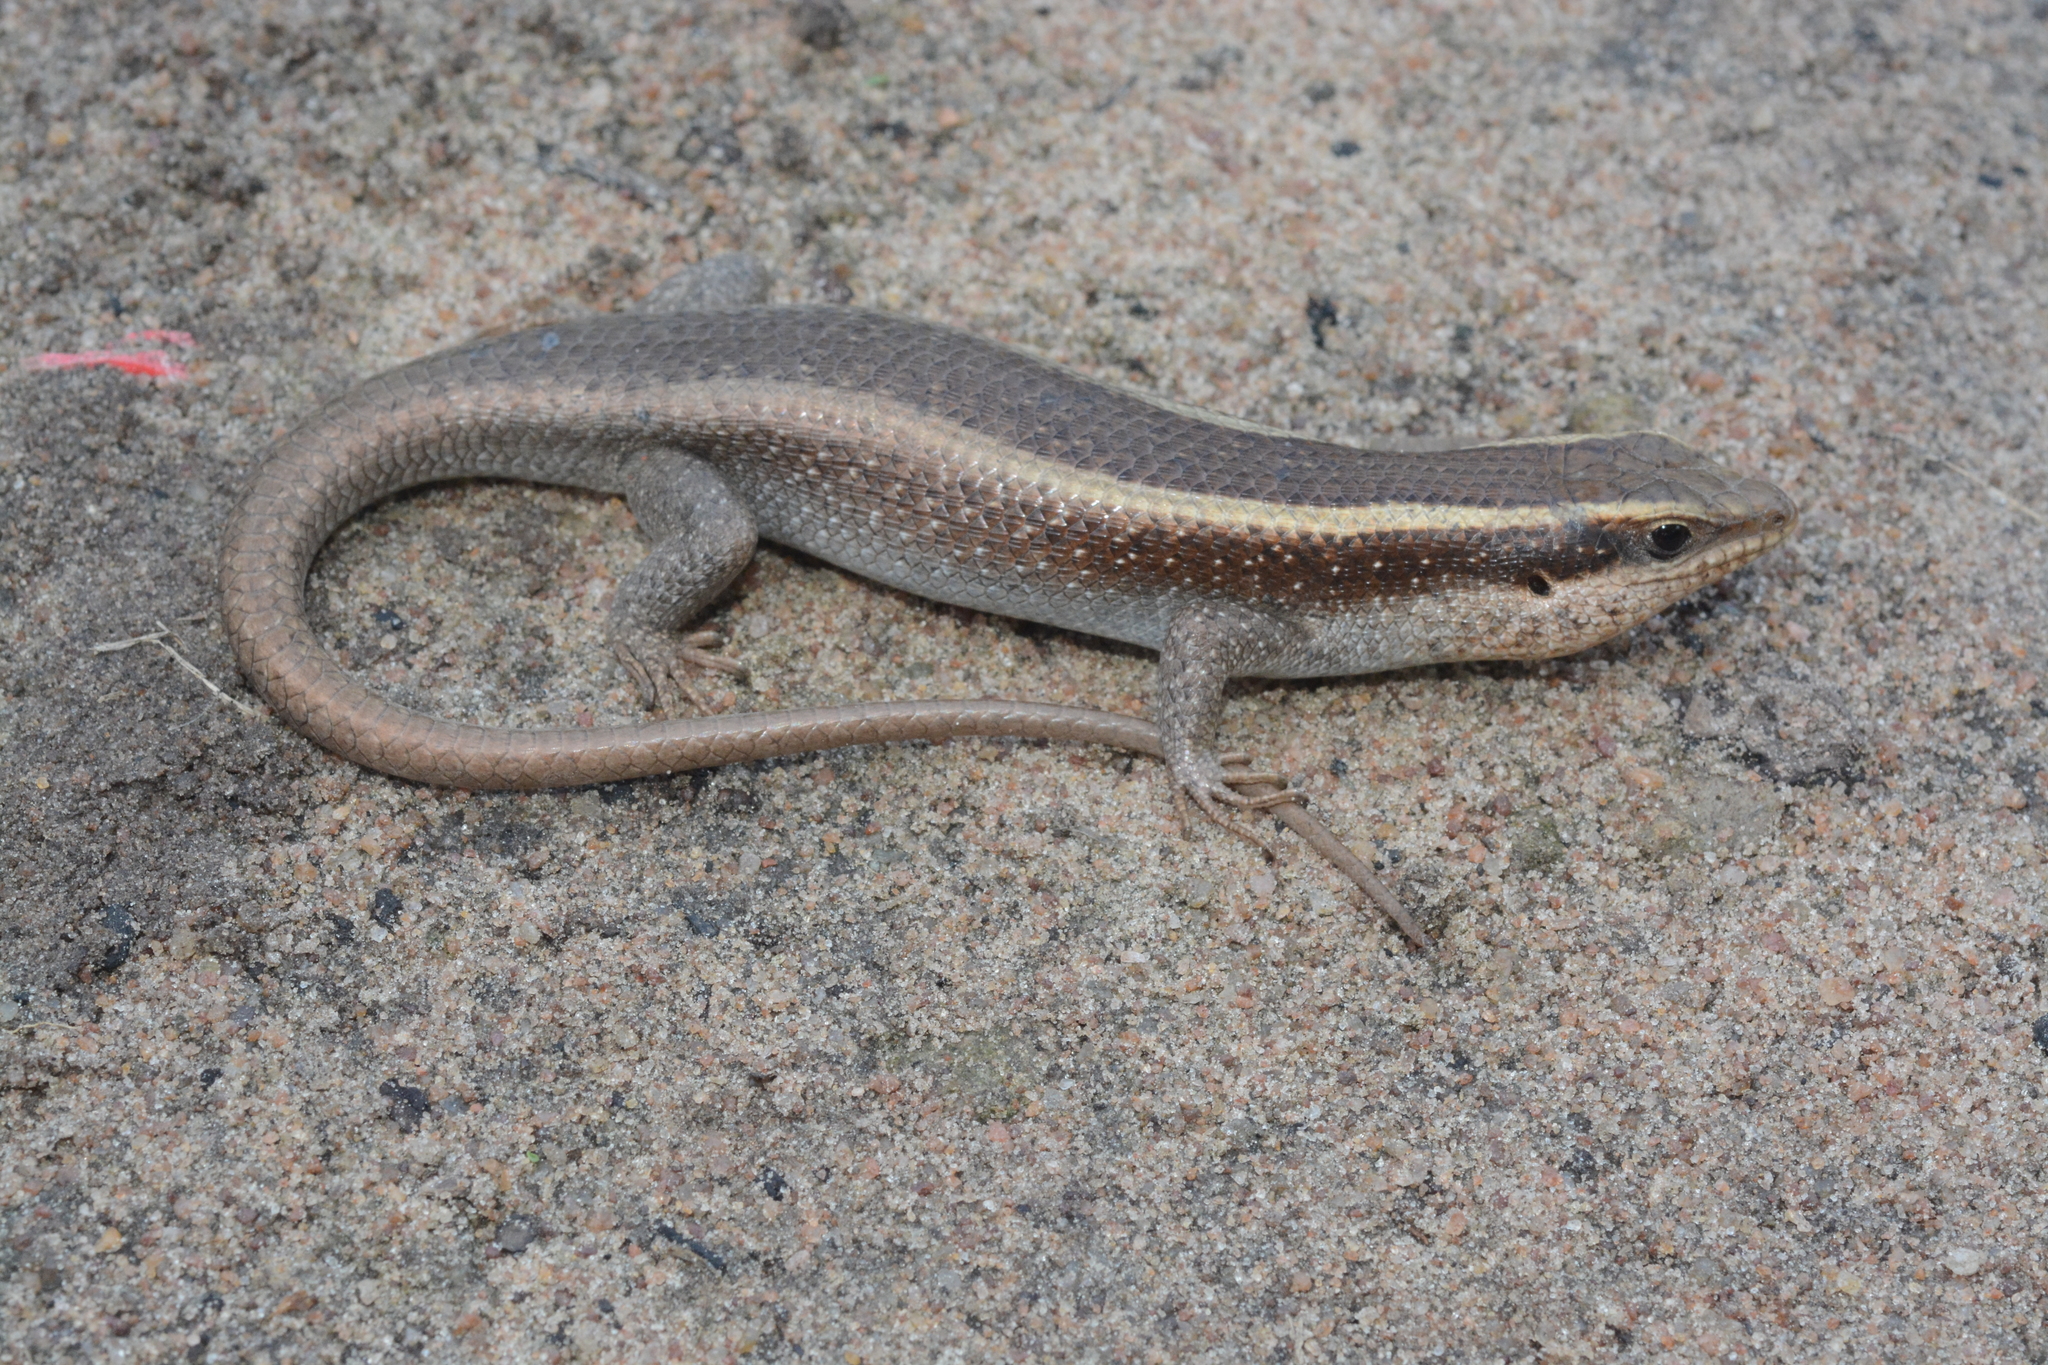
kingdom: Animalia
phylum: Chordata
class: Squamata
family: Scincidae
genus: Trachylepis
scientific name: Trachylepis striata
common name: African striped mabuya
